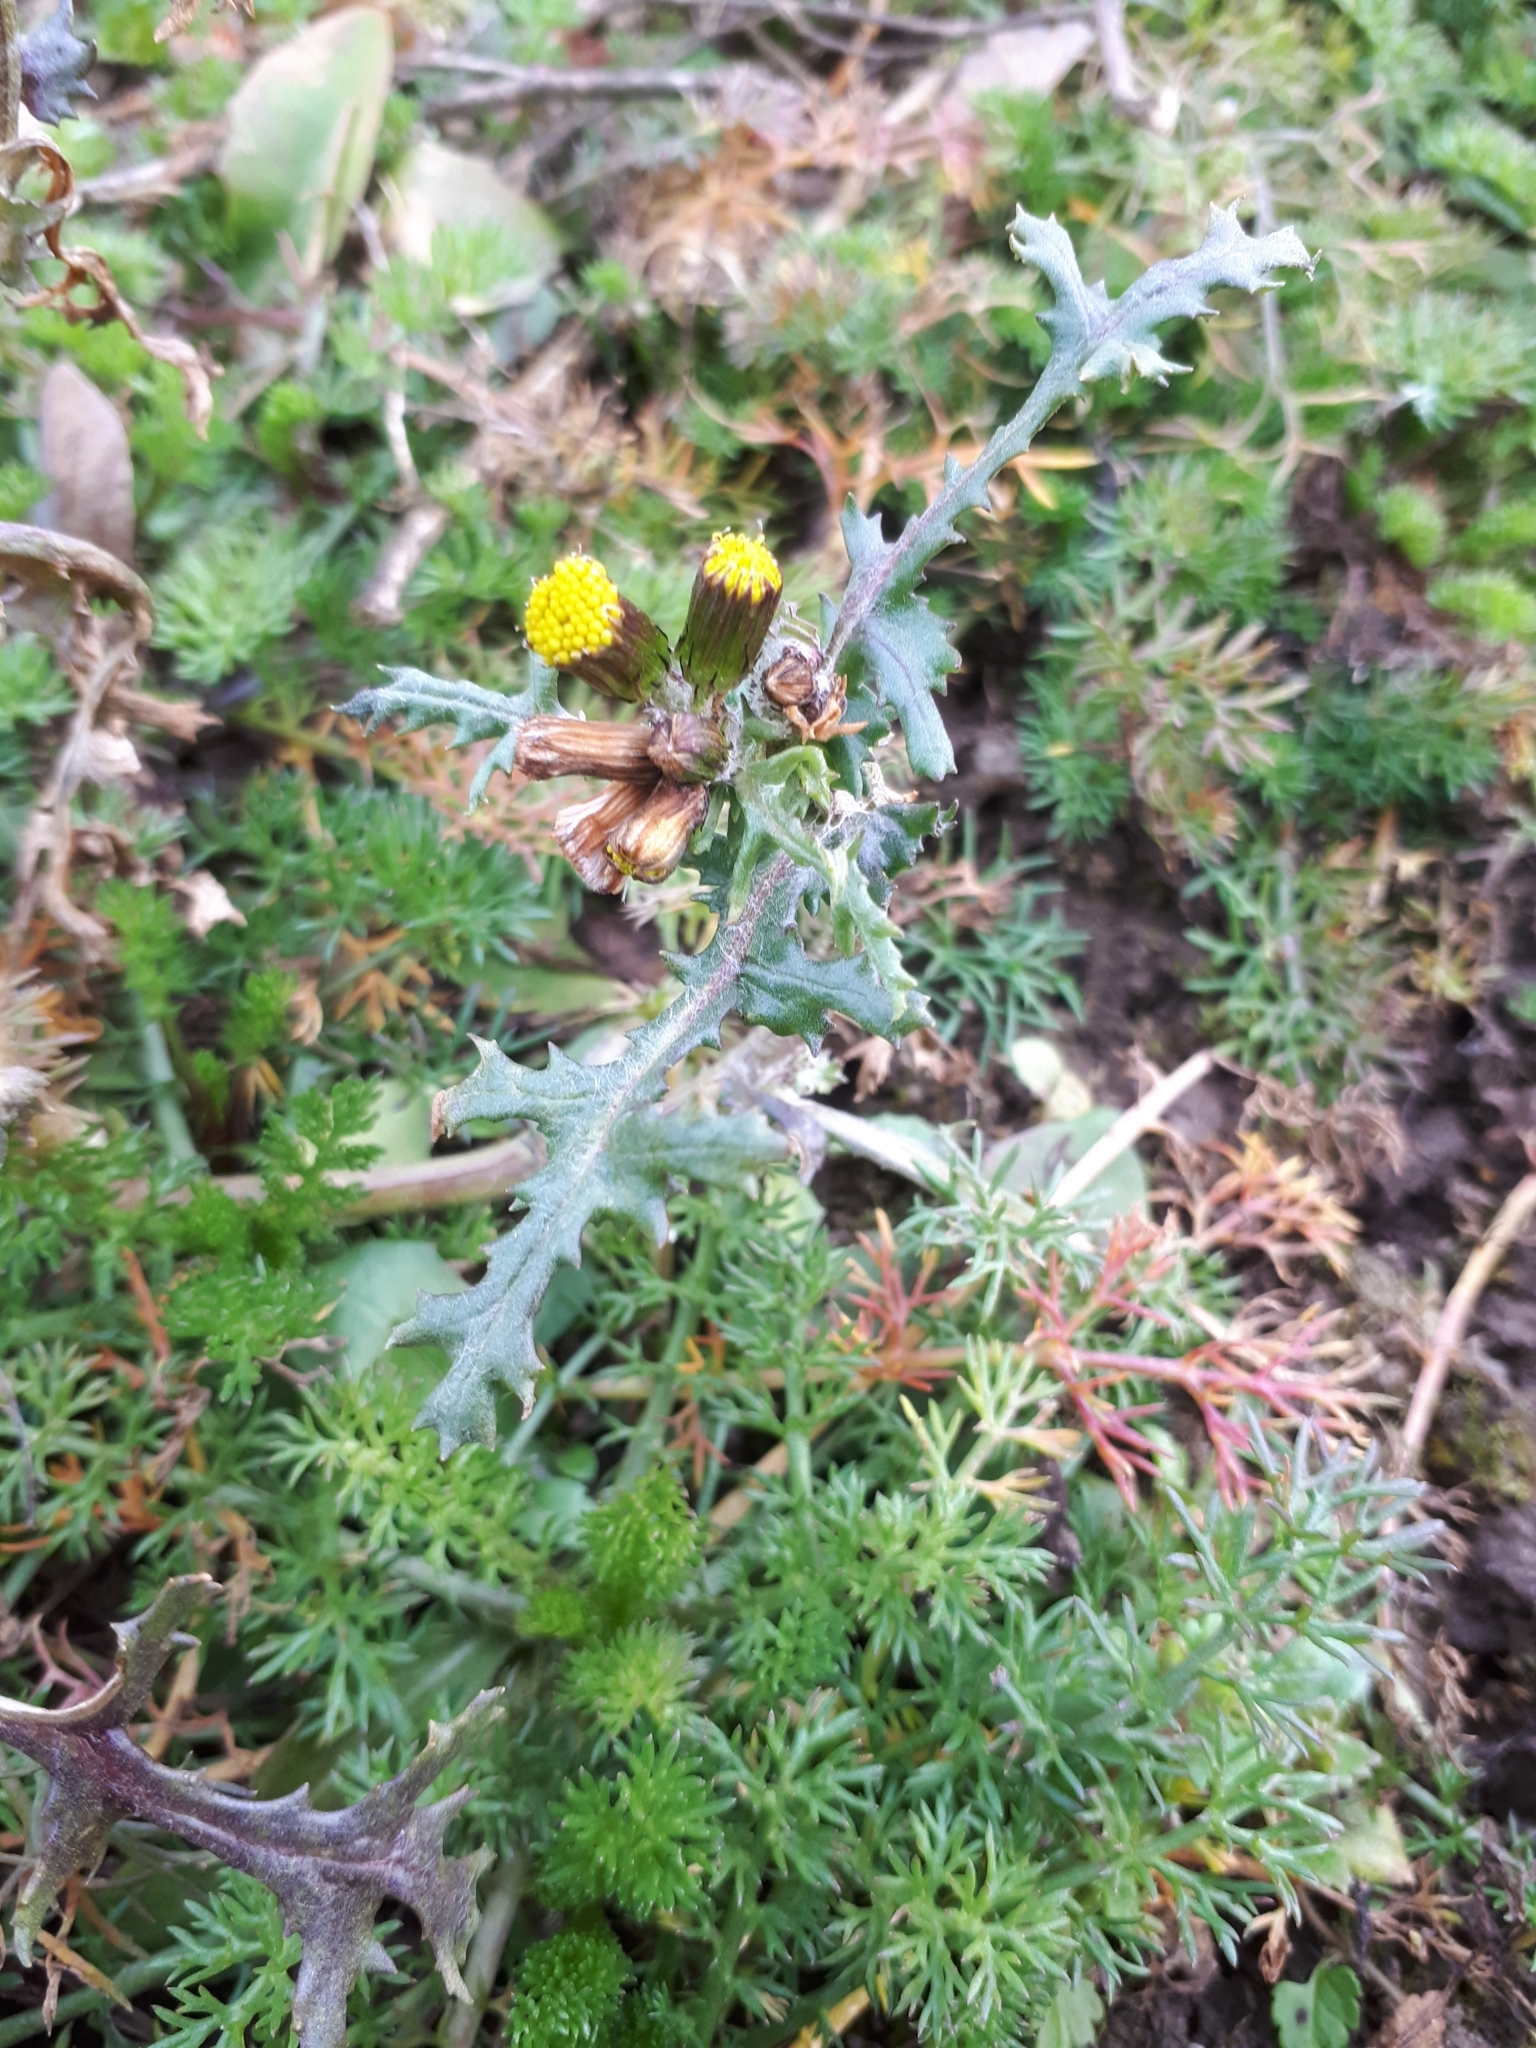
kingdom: Plantae
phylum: Tracheophyta
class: Magnoliopsida
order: Asterales
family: Asteraceae
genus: Senecio
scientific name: Senecio vulgaris
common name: Old-man-in-the-spring
